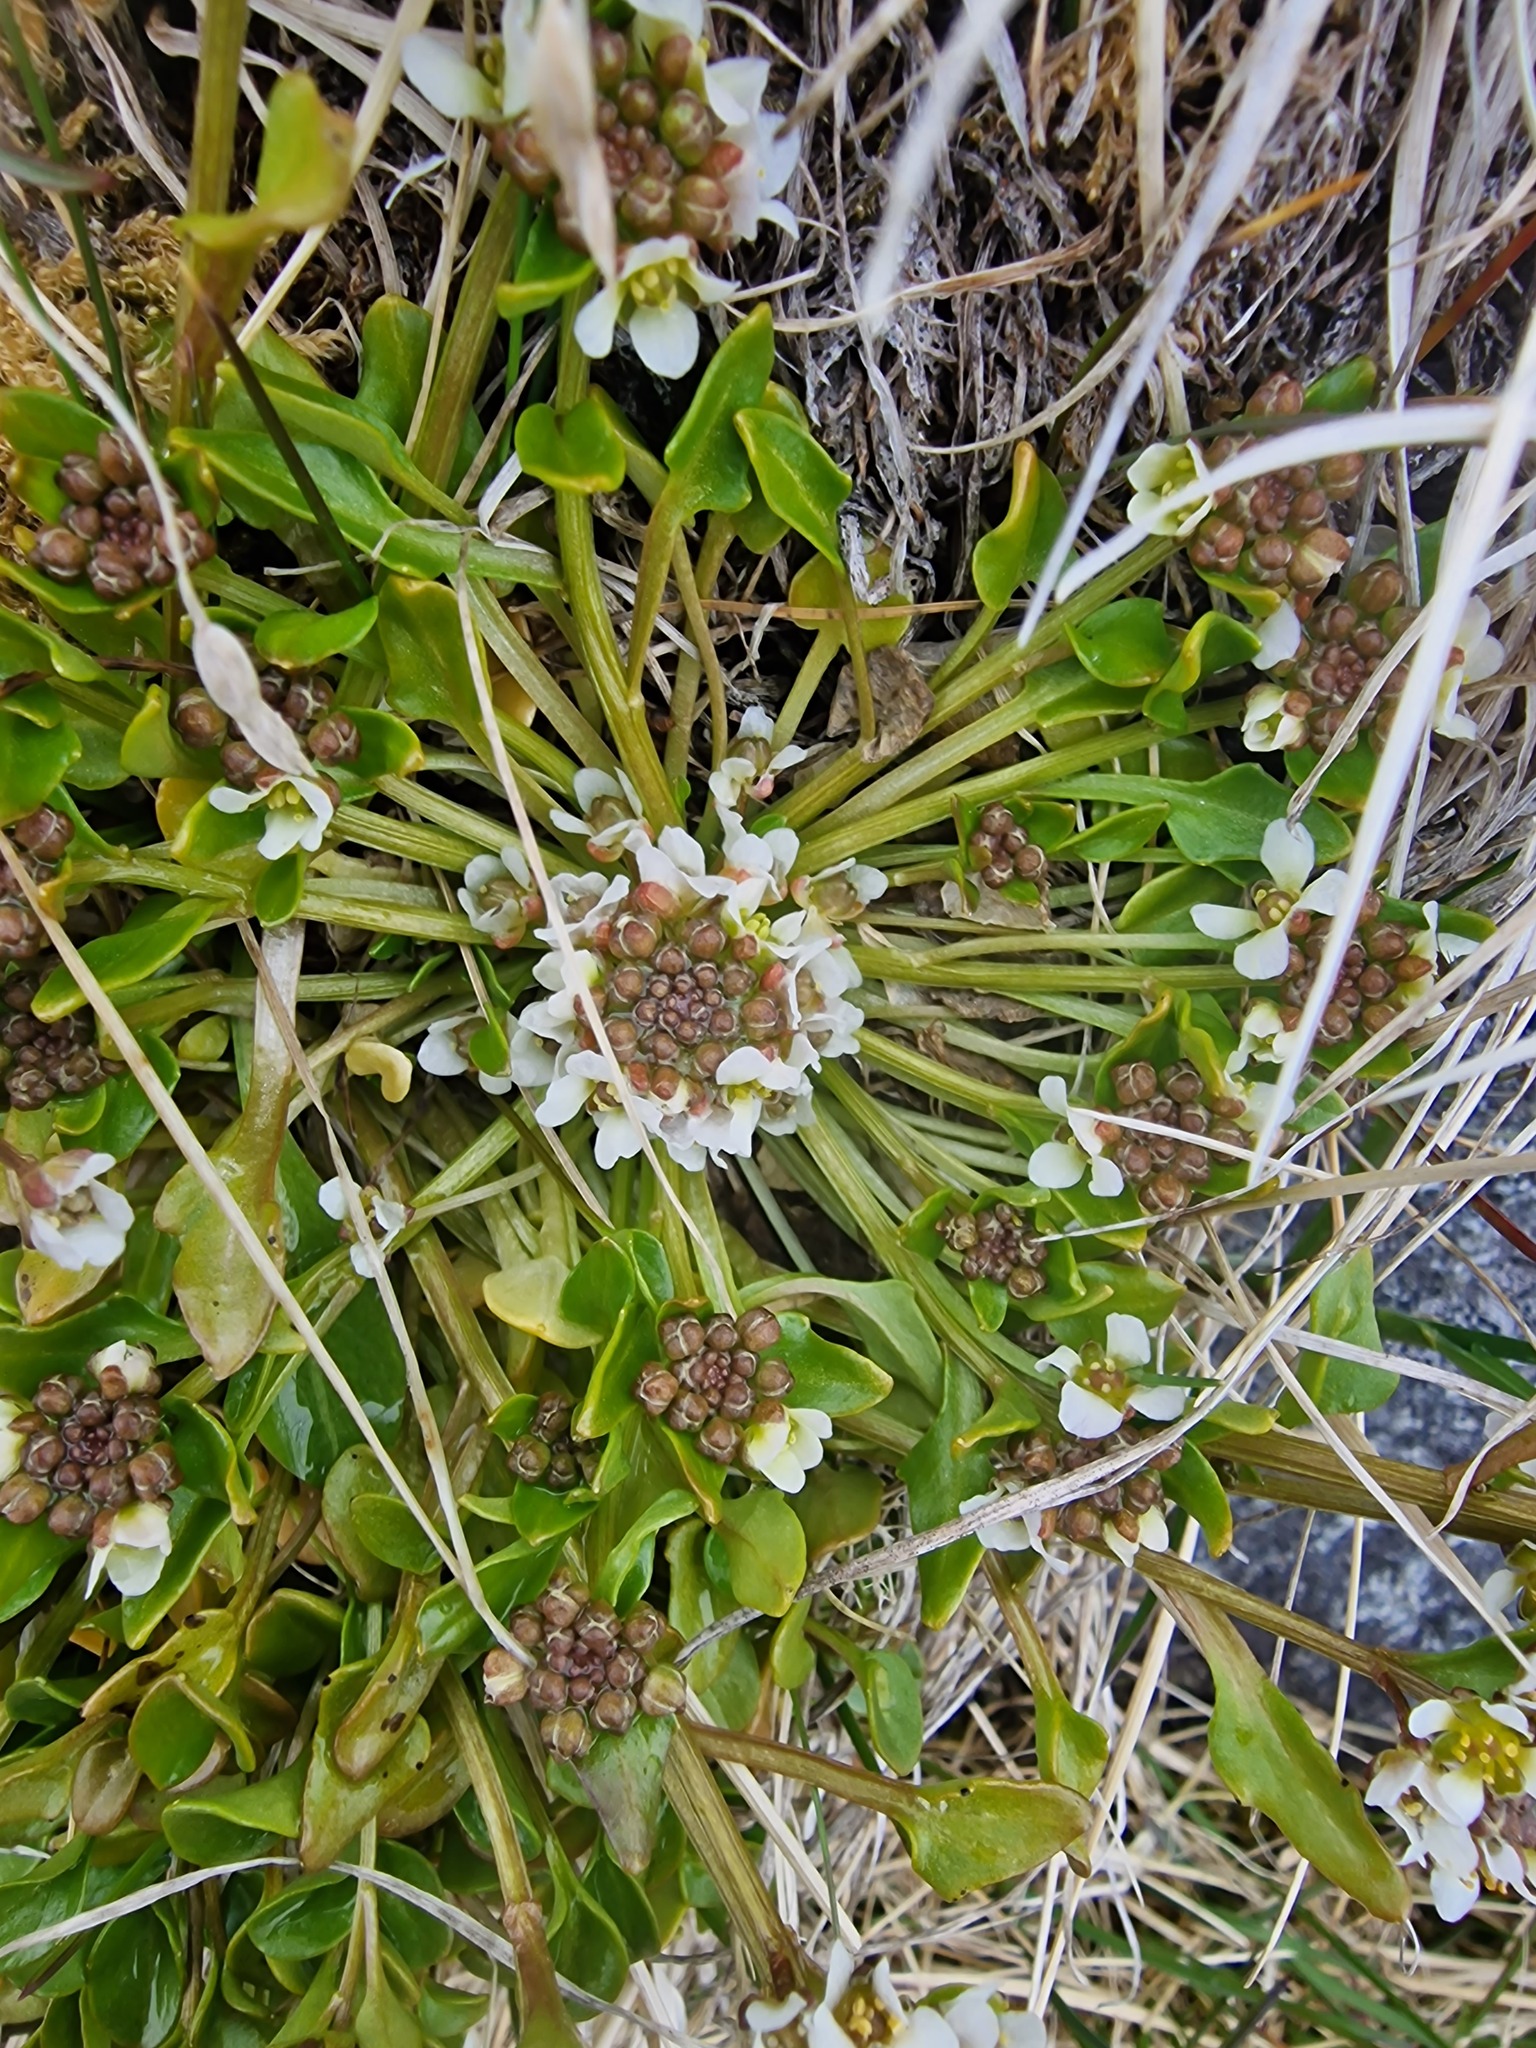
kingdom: Plantae
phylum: Tracheophyta
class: Magnoliopsida
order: Brassicales
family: Brassicaceae
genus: Cochlearia
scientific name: Cochlearia groenlandica
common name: Danish scurvygrass
